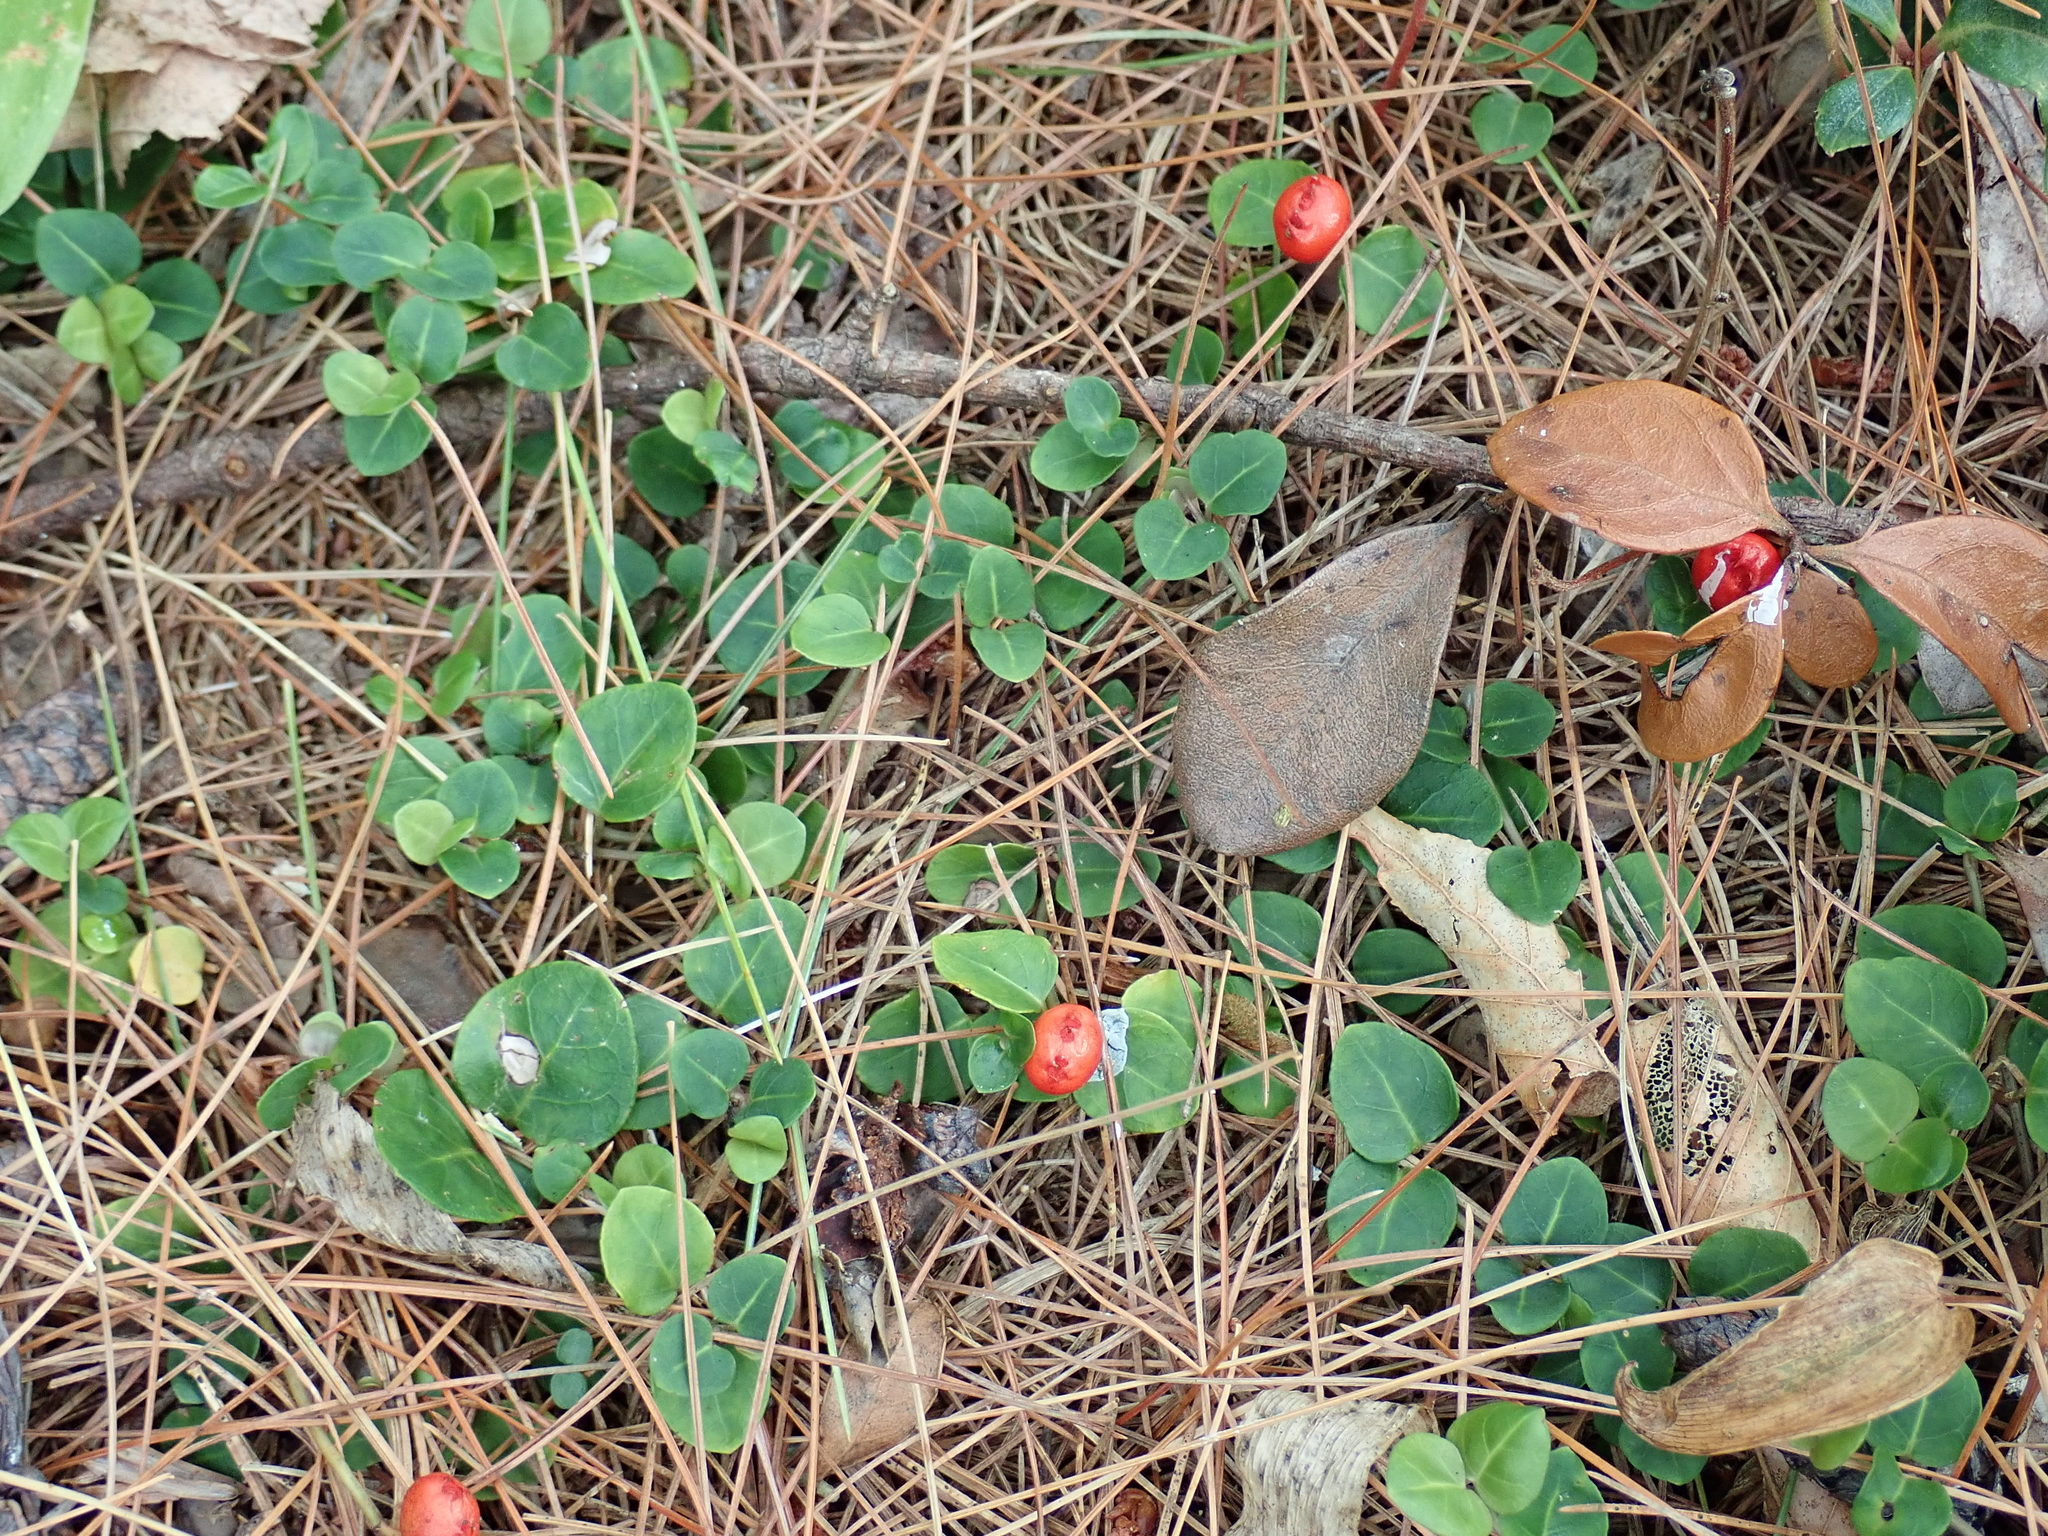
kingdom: Plantae
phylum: Tracheophyta
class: Magnoliopsida
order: Gentianales
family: Rubiaceae
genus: Mitchella
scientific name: Mitchella repens
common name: Partridge-berry
